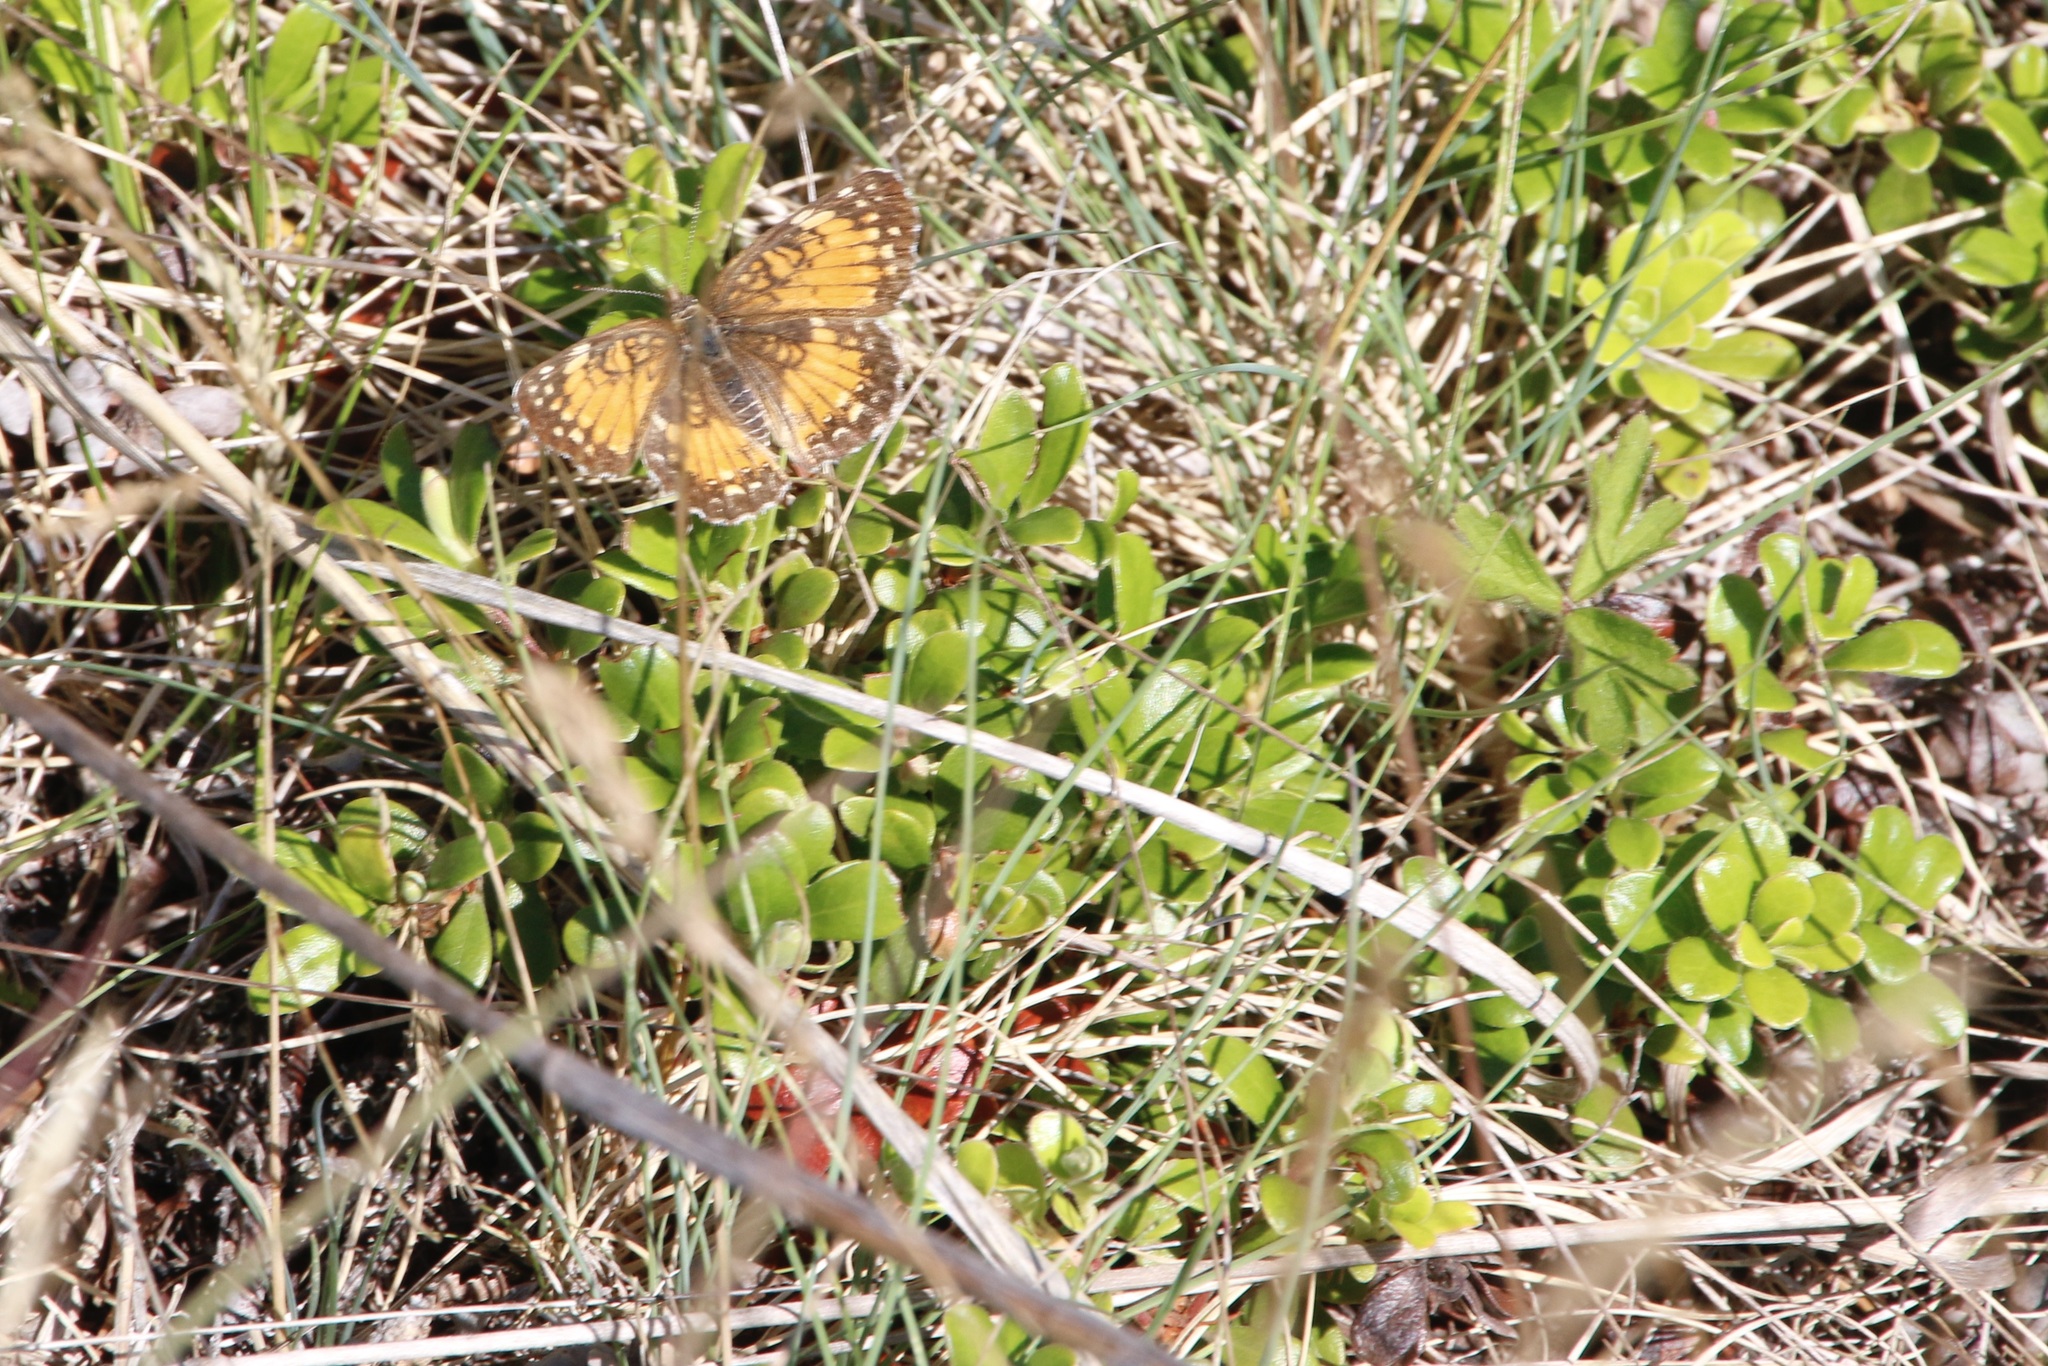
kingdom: Plantae
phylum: Tracheophyta
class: Magnoliopsida
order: Ericales
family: Ericaceae
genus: Arctostaphylos
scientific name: Arctostaphylos uva-ursi
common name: Bearberry
